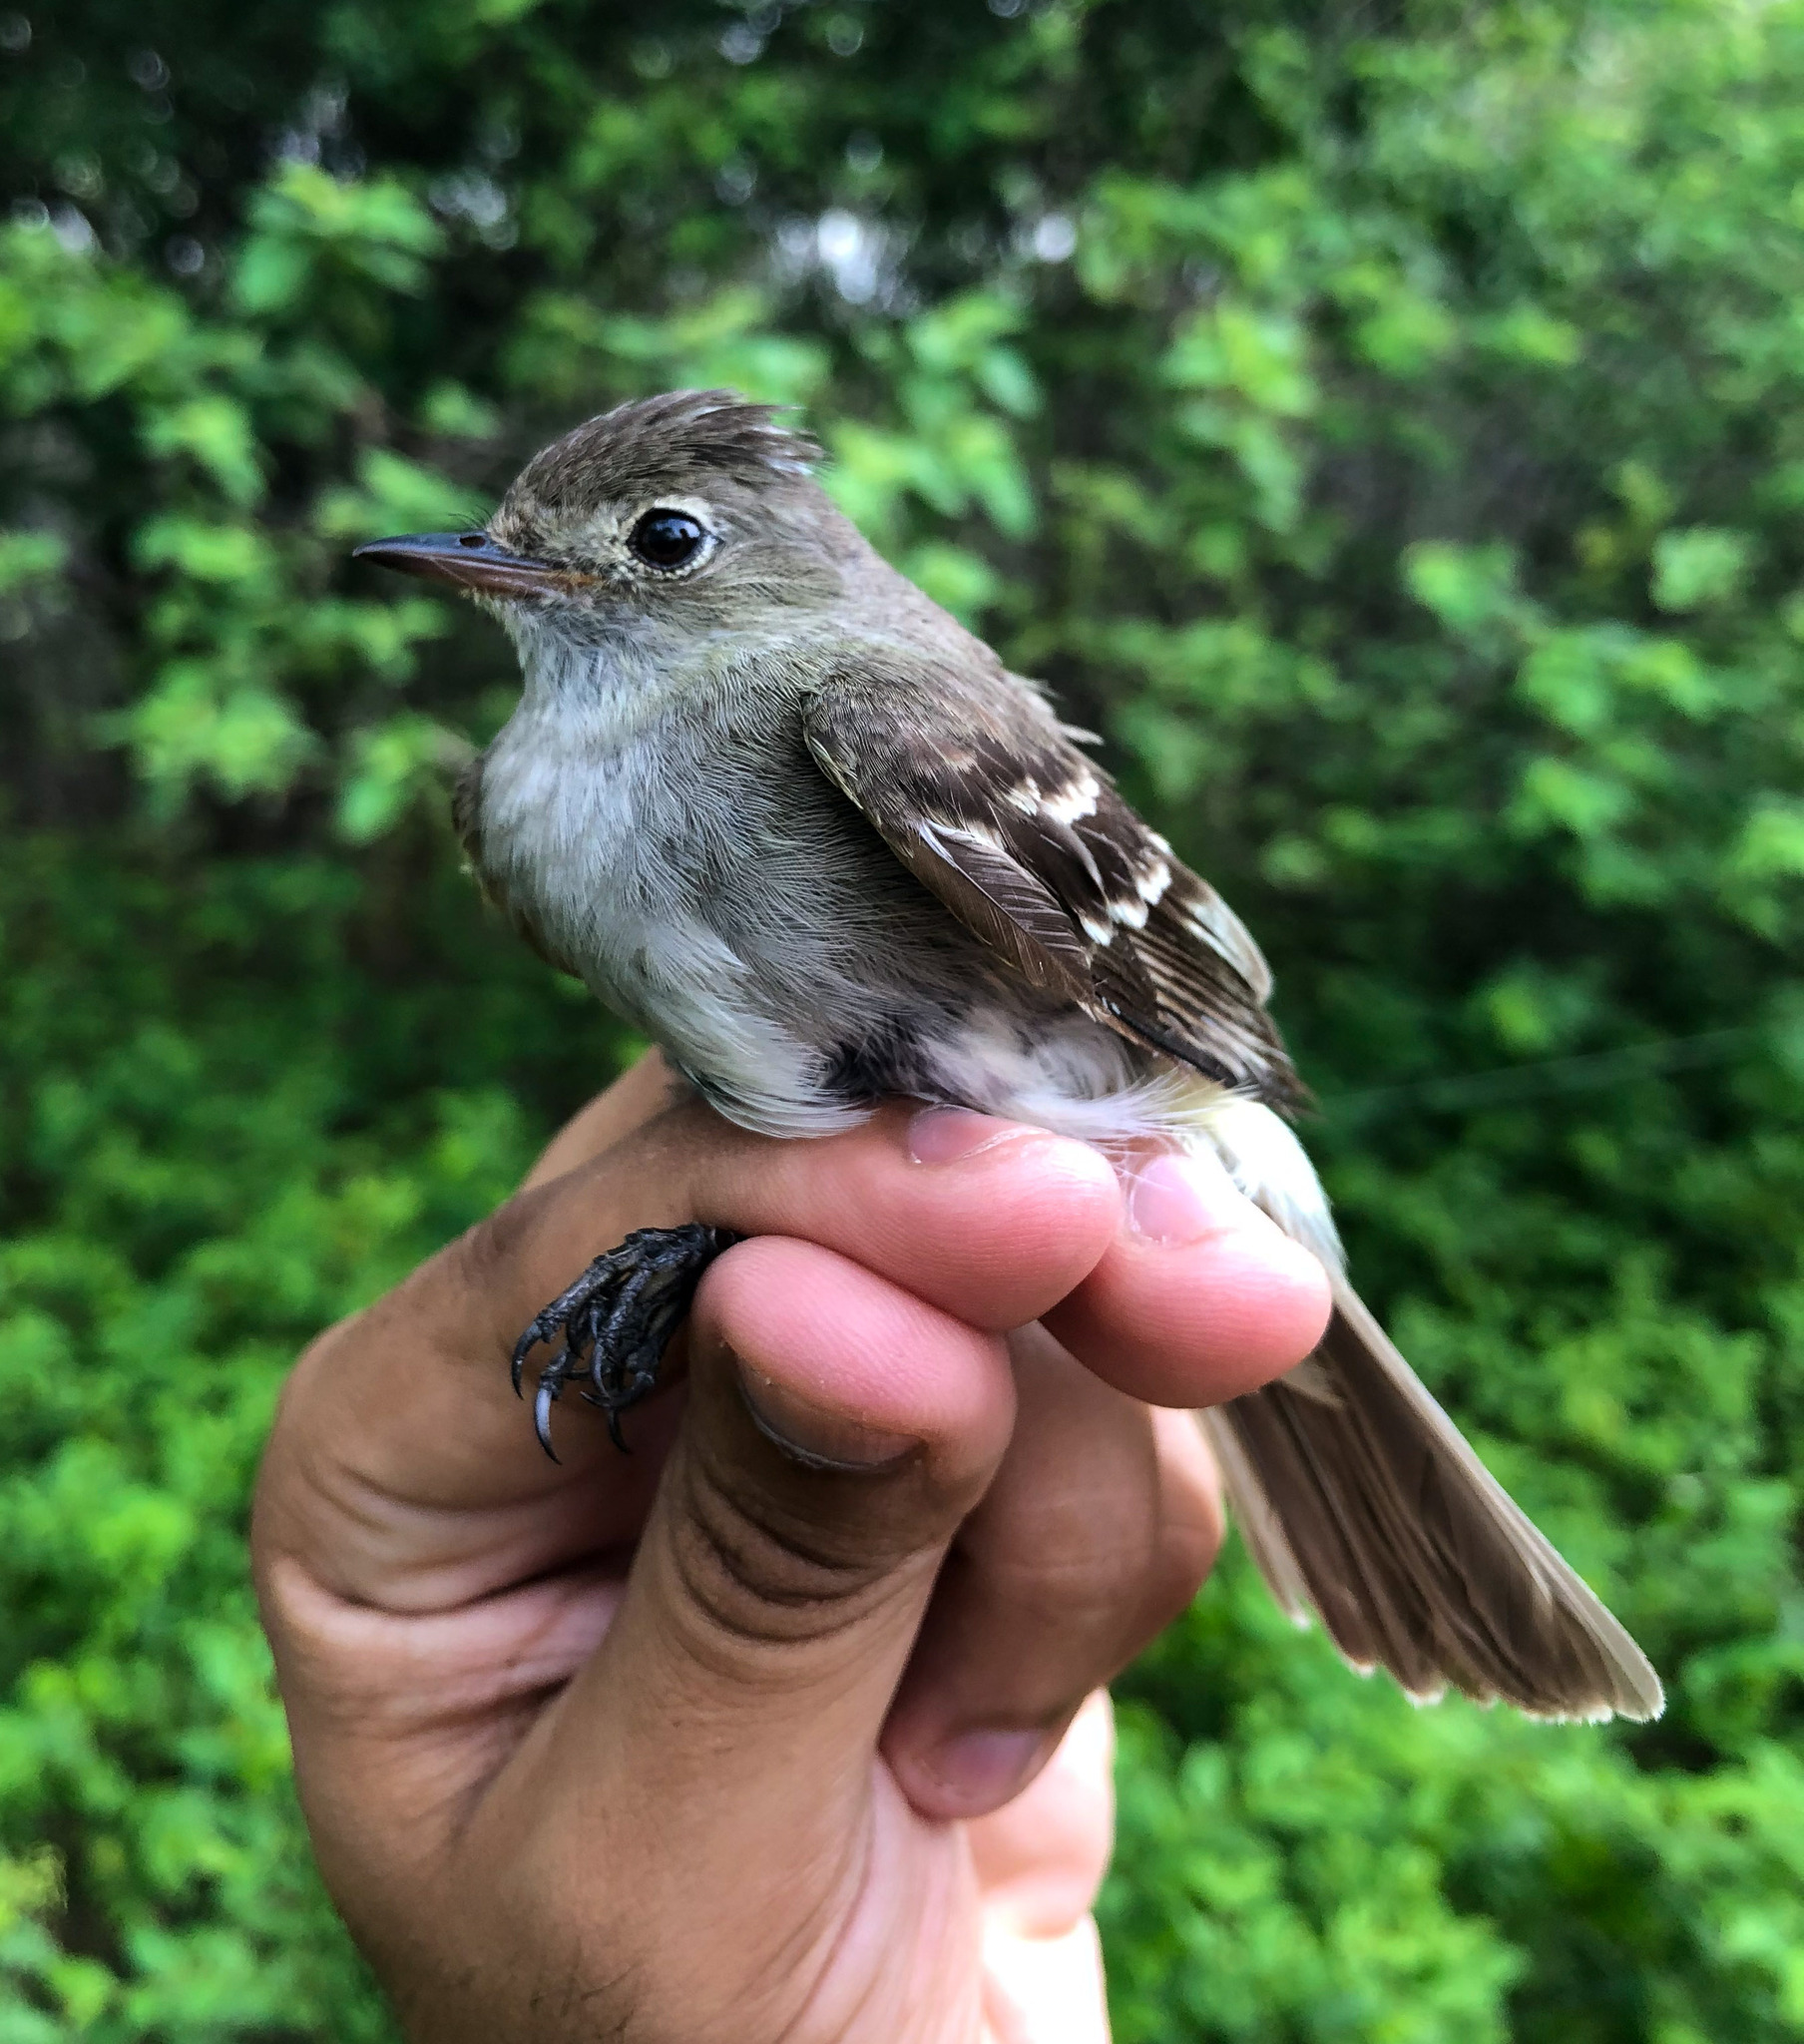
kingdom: Animalia
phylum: Chordata
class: Aves
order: Passeriformes
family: Tyrannidae
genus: Elaenia
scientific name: Elaenia albiceps
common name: White-crested elaenia
